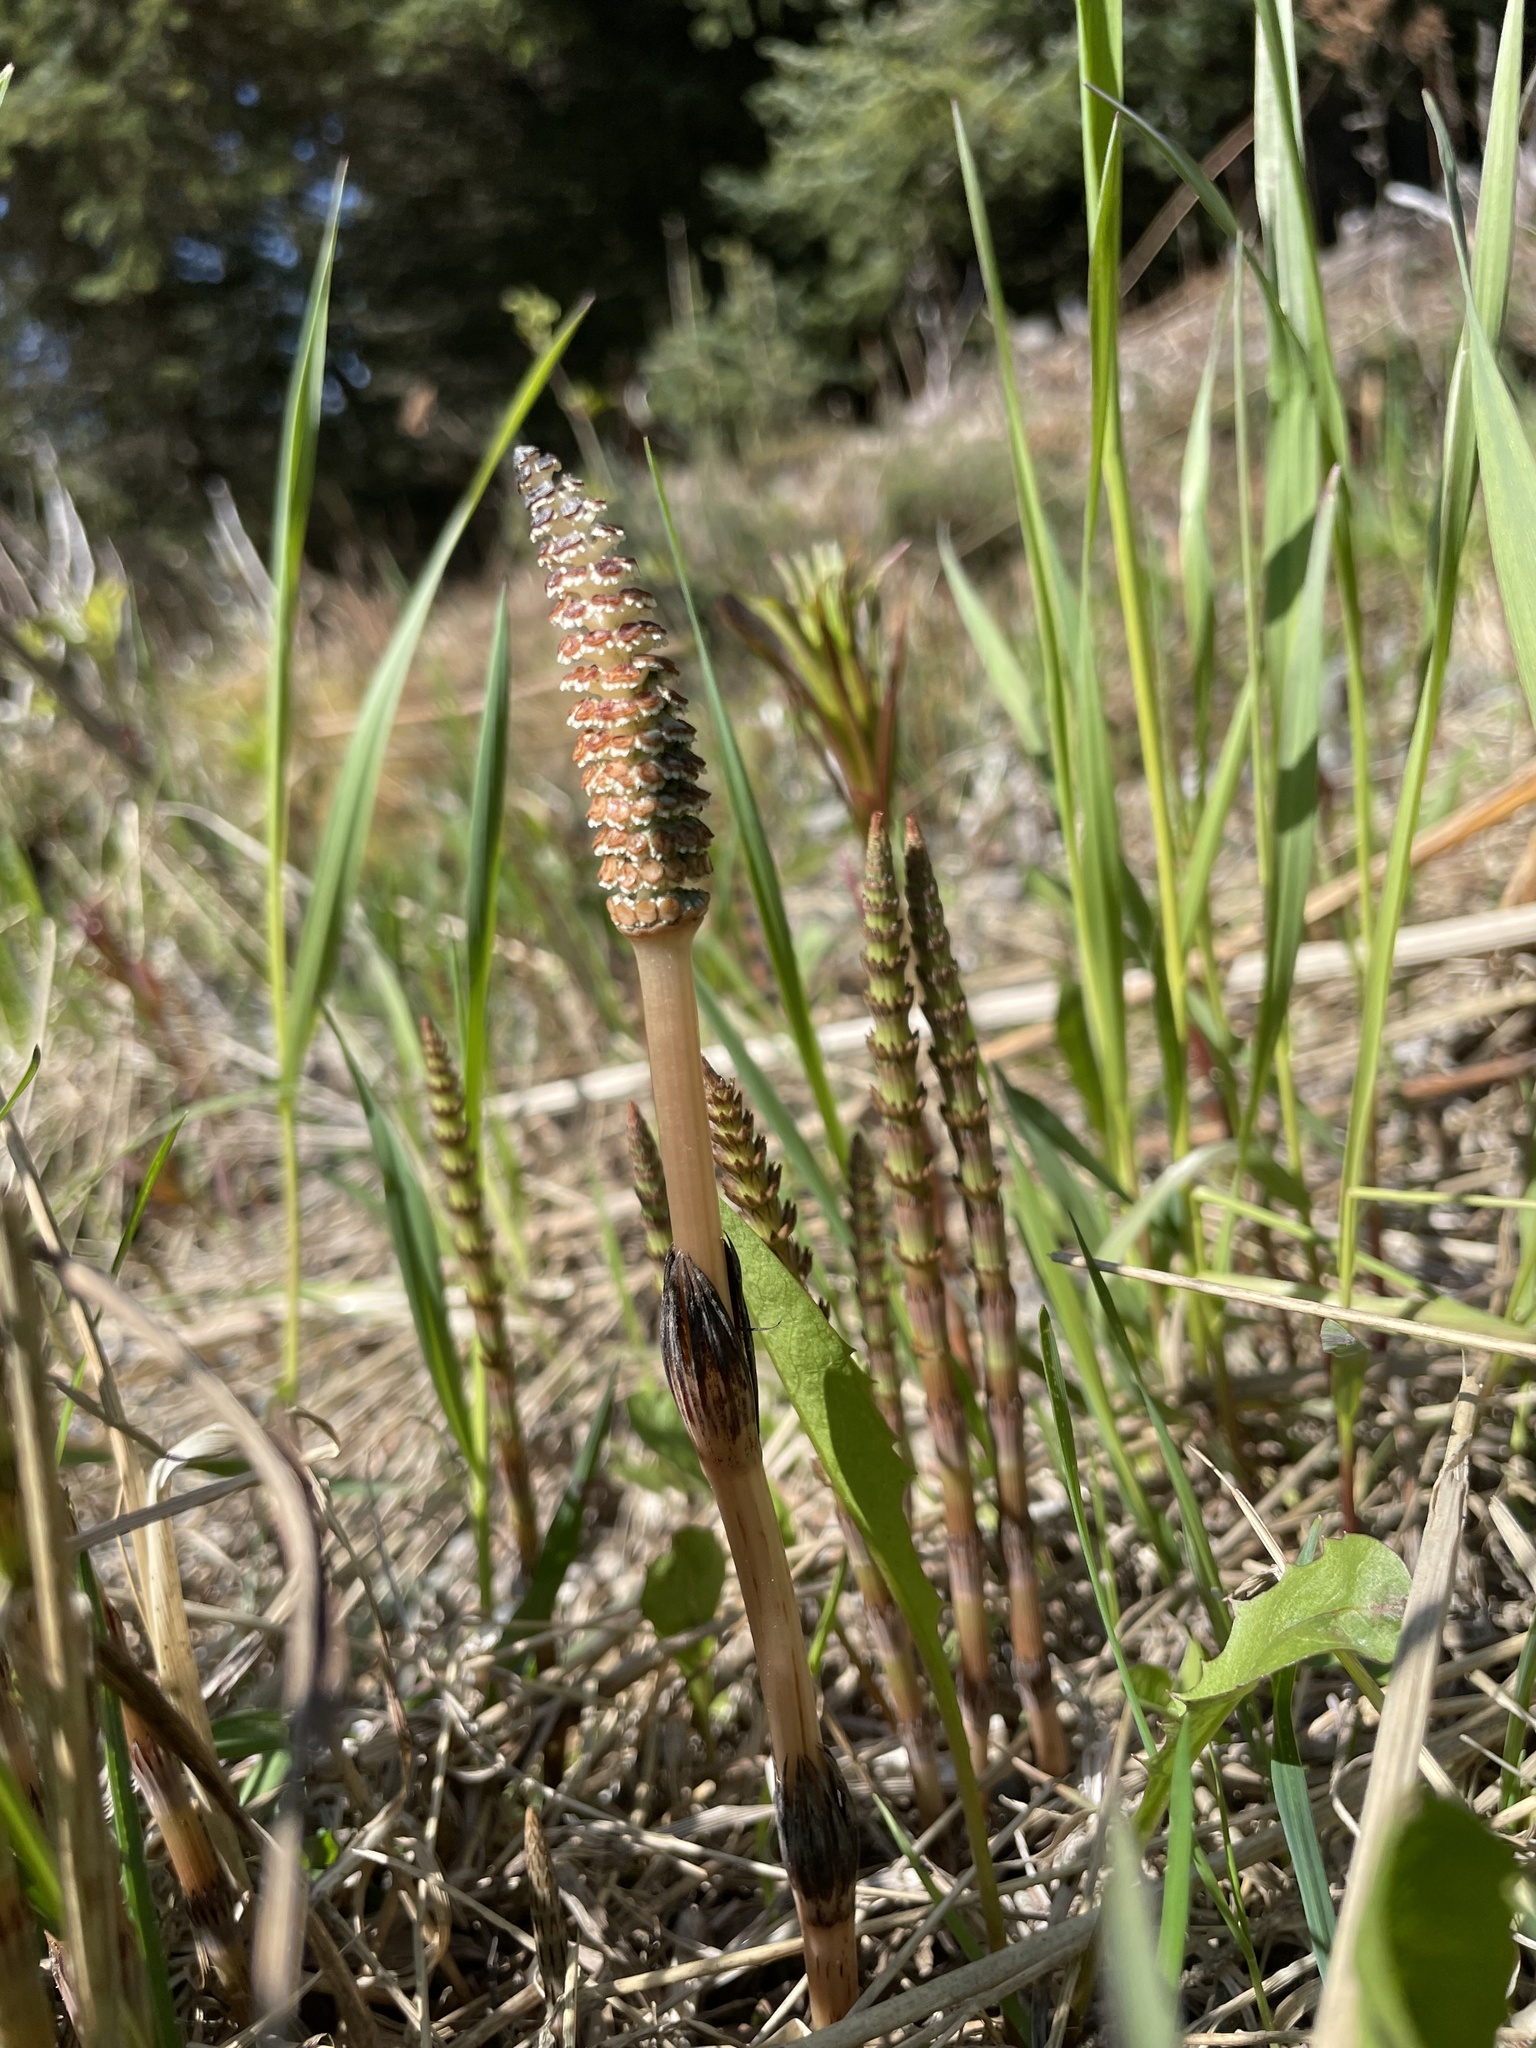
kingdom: Plantae
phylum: Tracheophyta
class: Polypodiopsida
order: Equisetales
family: Equisetaceae
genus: Equisetum
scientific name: Equisetum arvense
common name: Field horsetail
